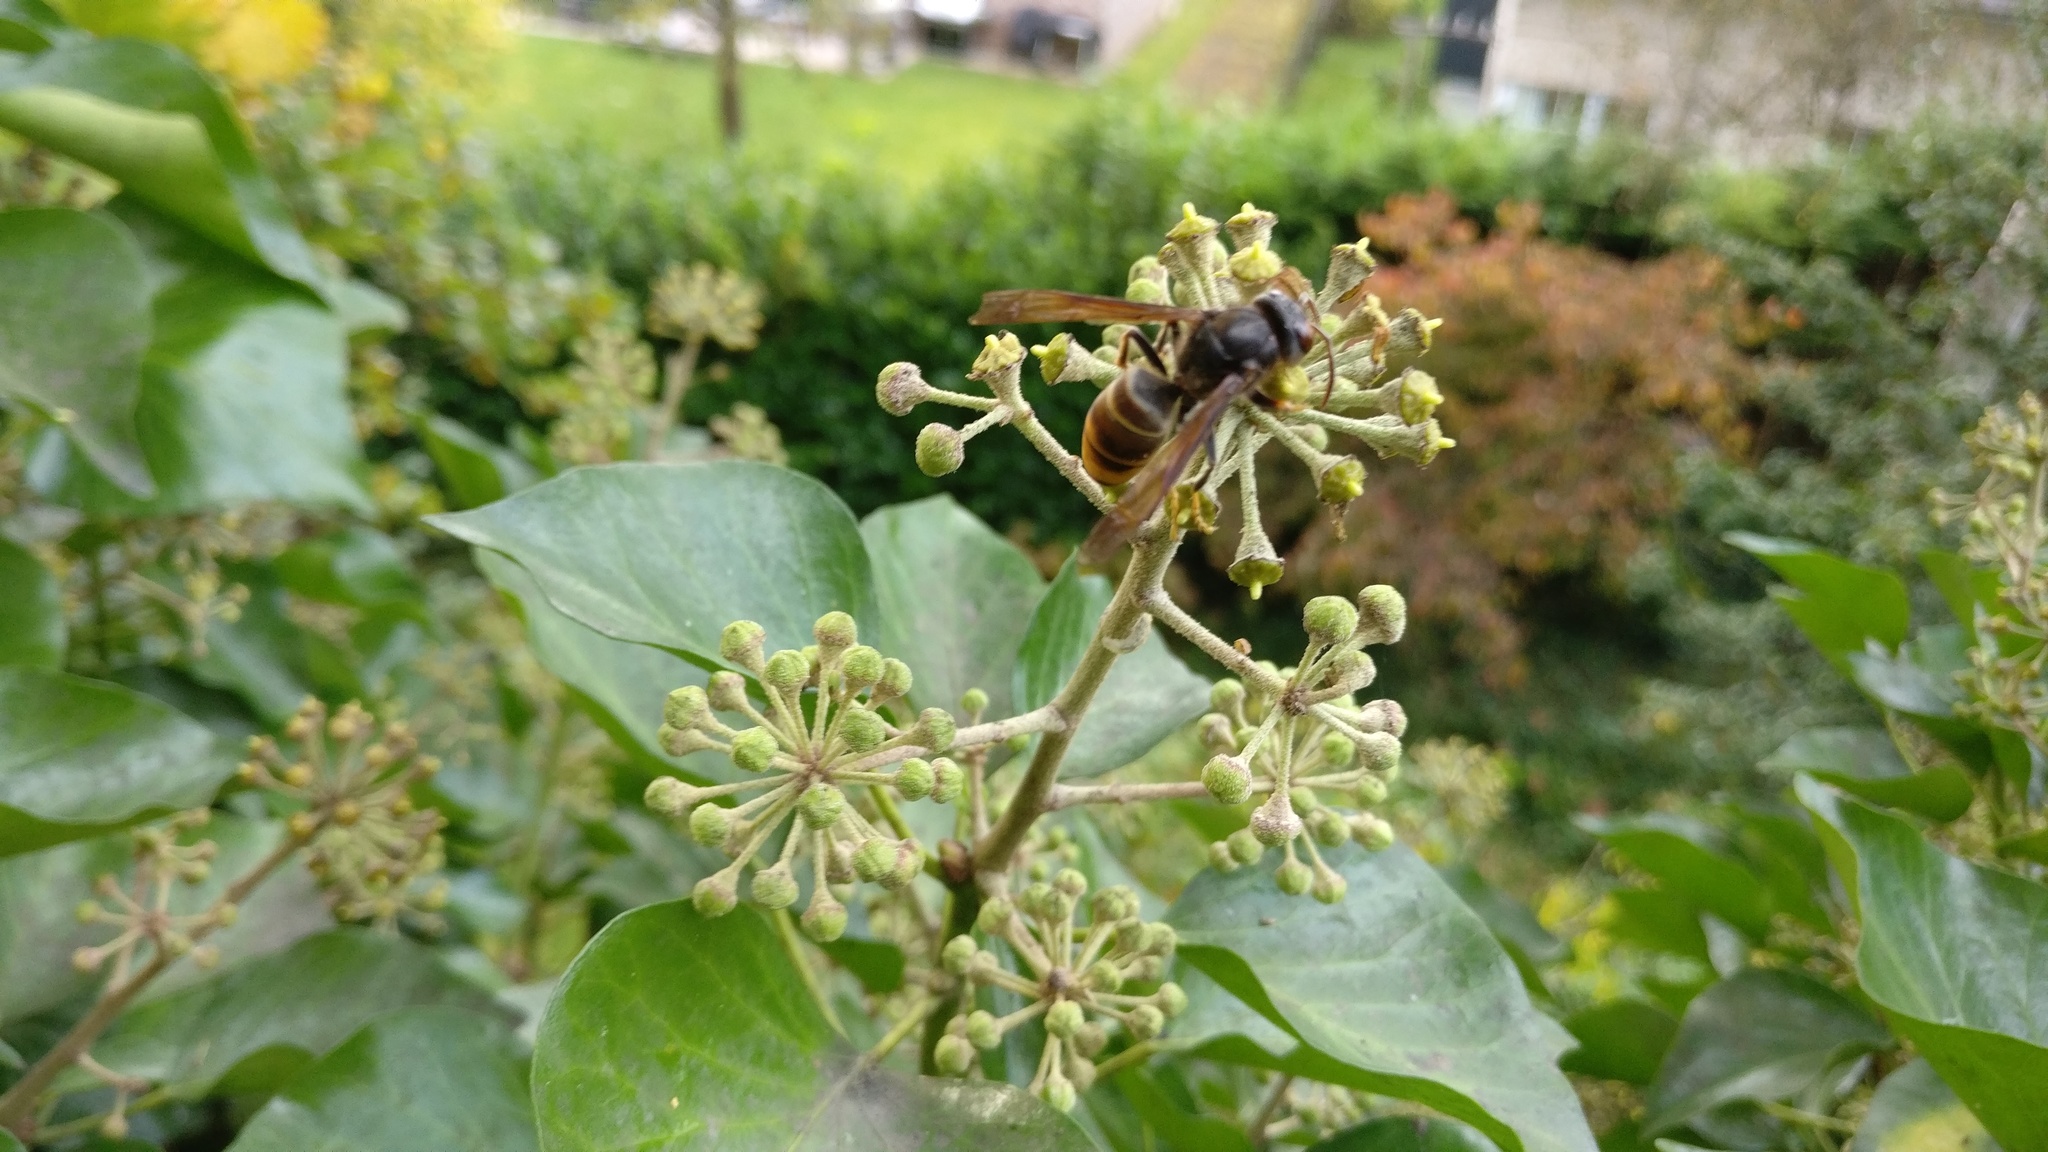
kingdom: Animalia
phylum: Arthropoda
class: Insecta
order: Hymenoptera
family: Vespidae
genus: Vespa
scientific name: Vespa velutina
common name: Asian hornet
